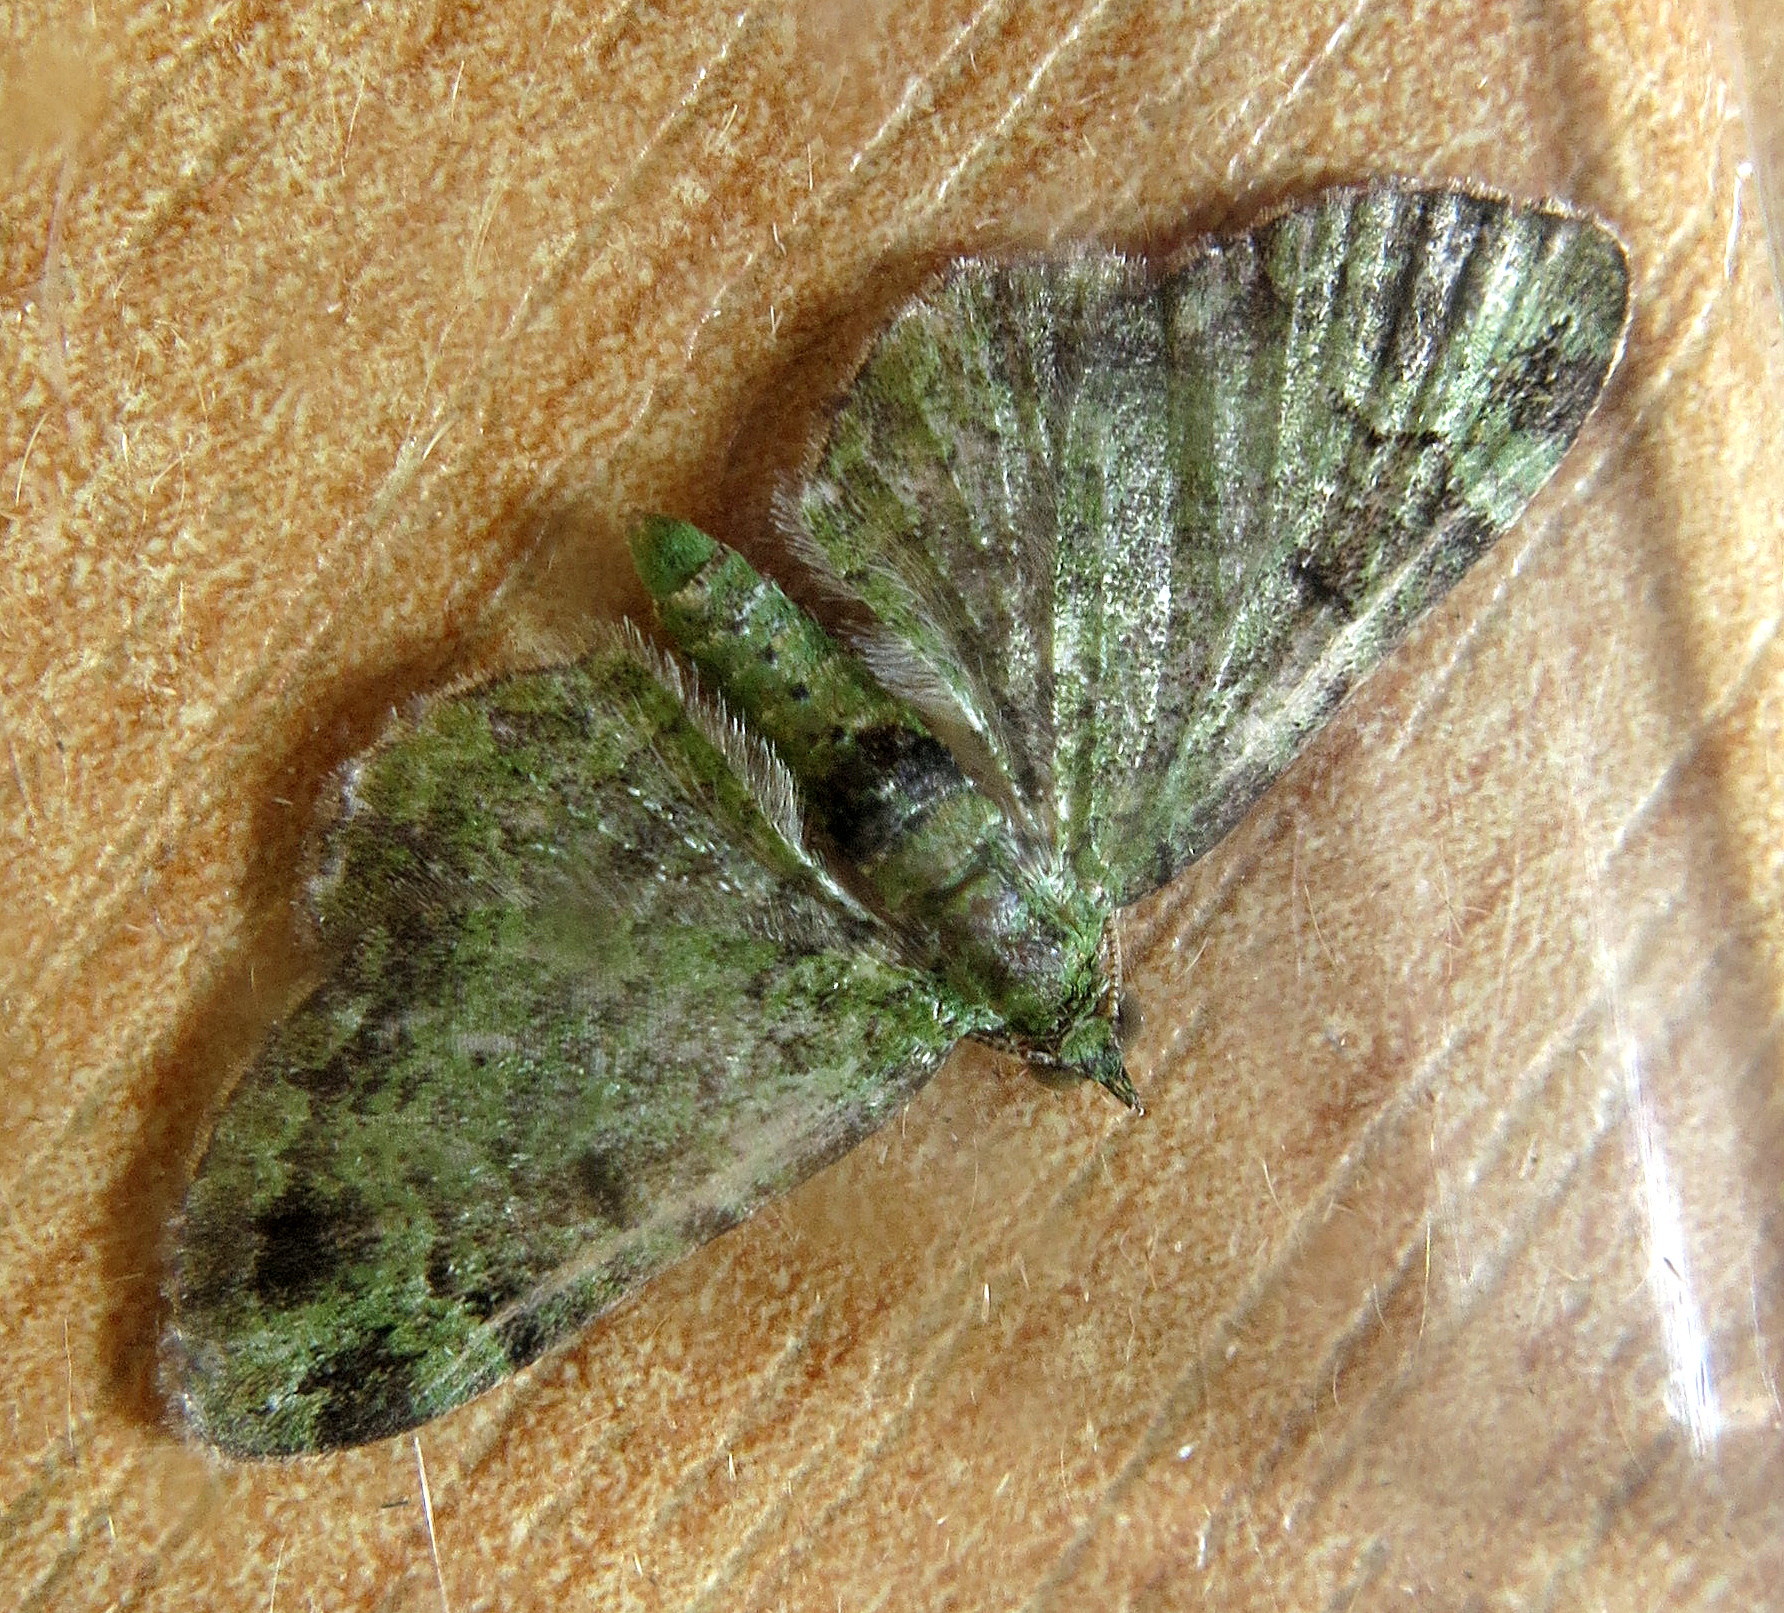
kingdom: Animalia
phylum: Arthropoda
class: Insecta
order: Lepidoptera
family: Geometridae
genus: Pasiphila
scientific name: Pasiphila rectangulata
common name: Green pug
